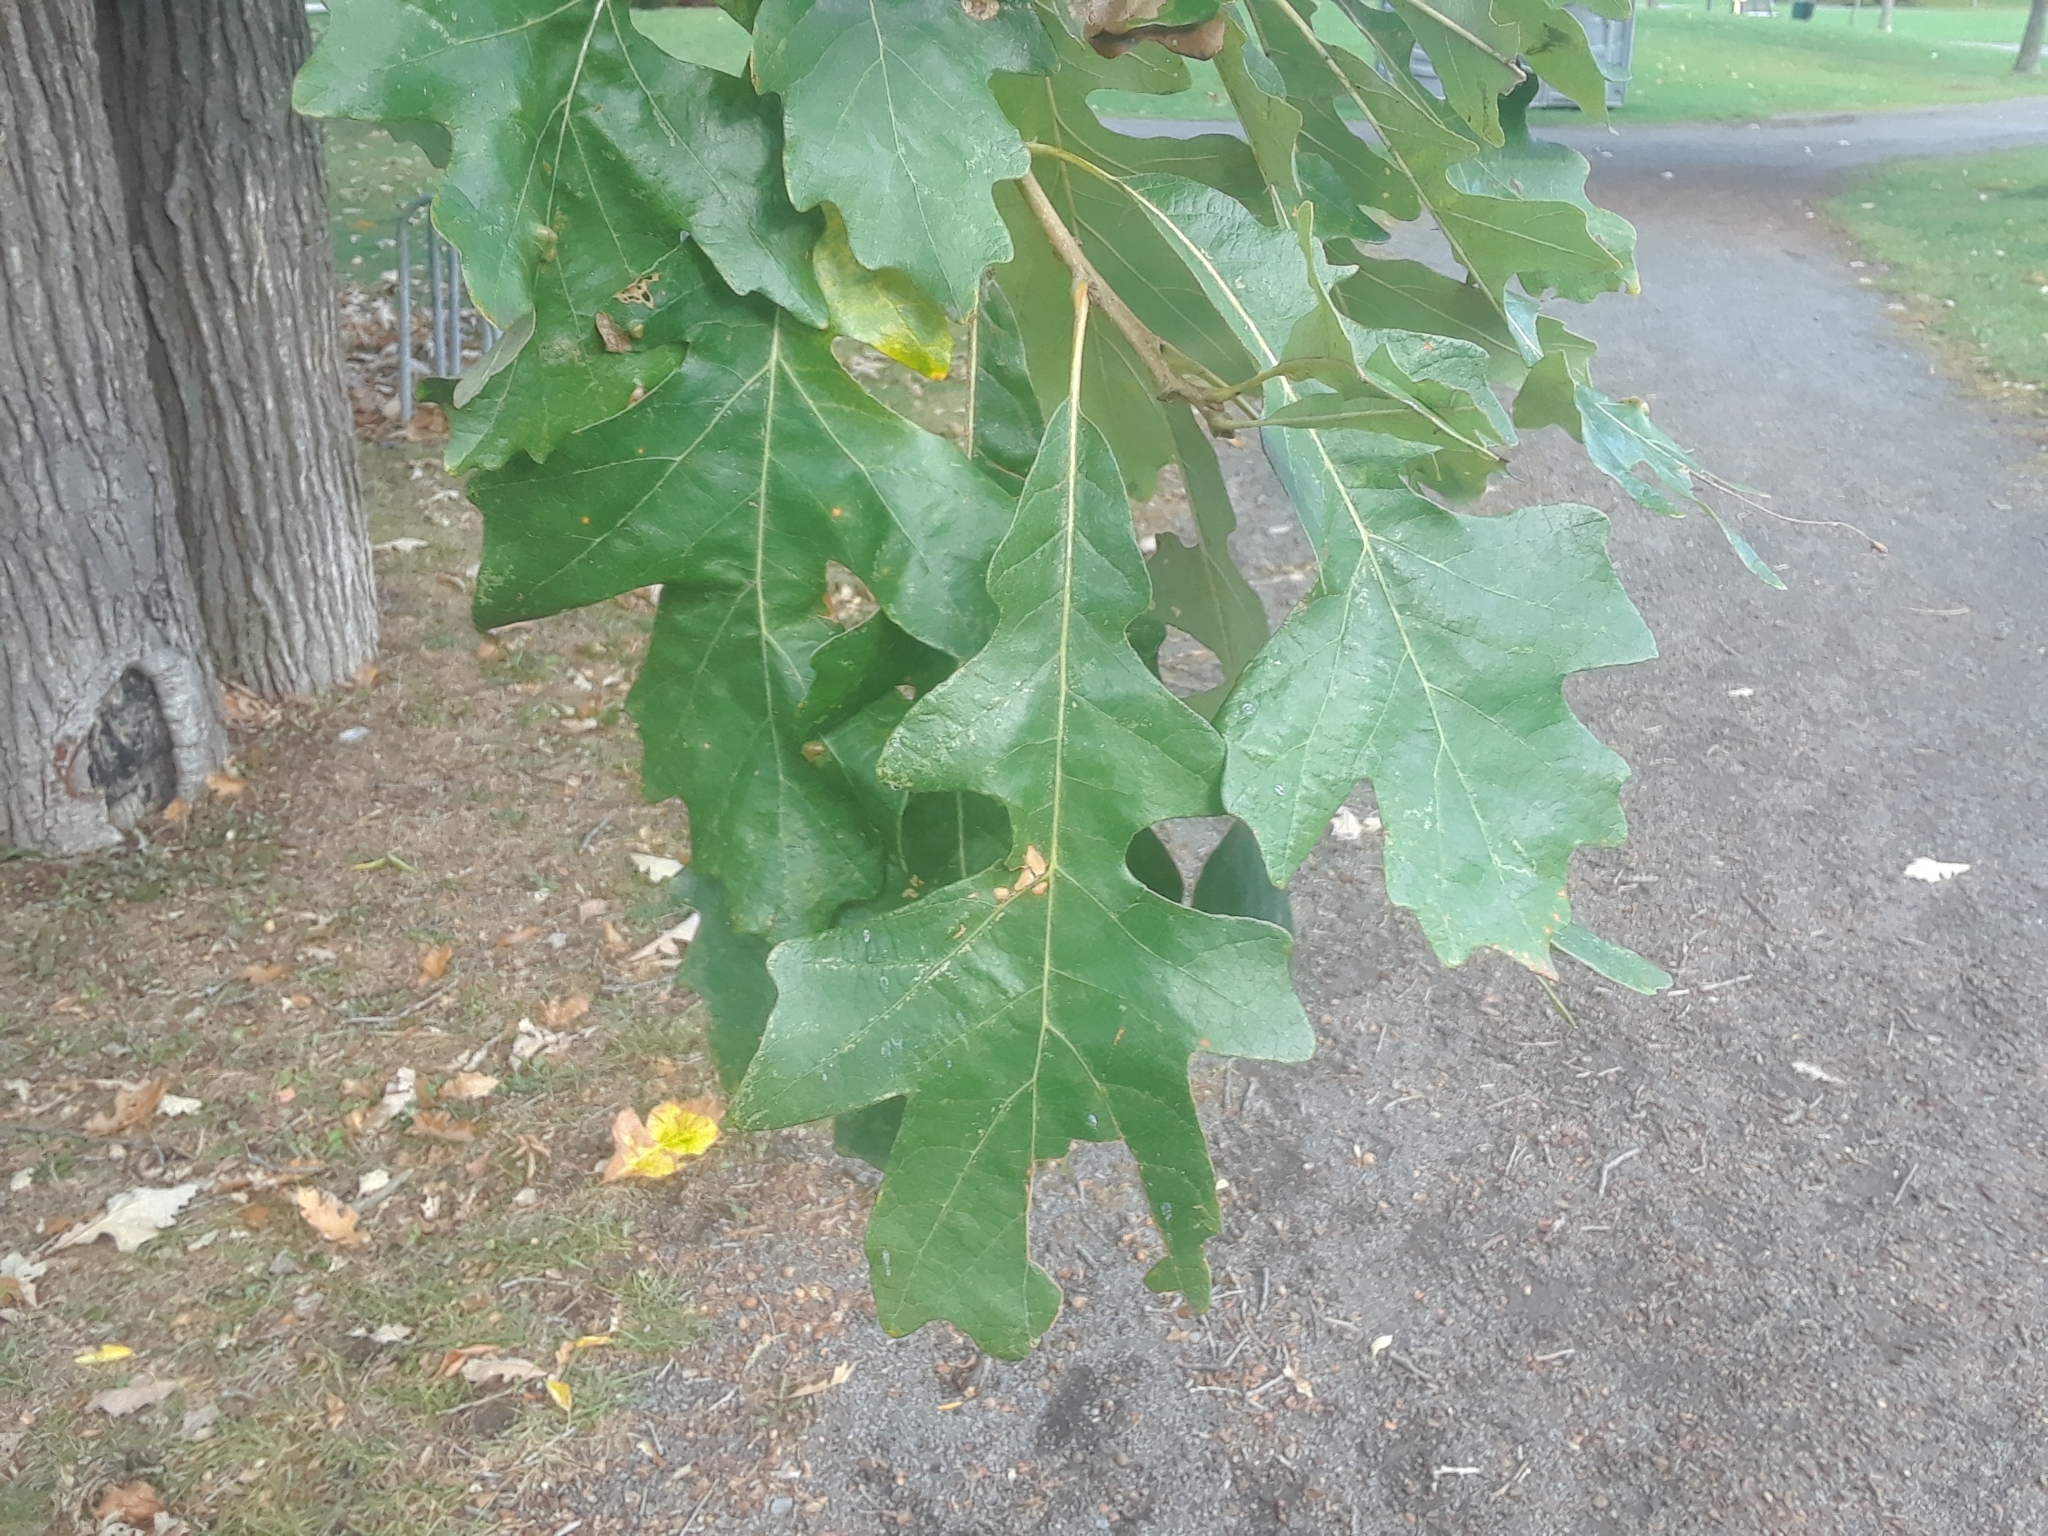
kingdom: Plantae
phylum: Tracheophyta
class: Magnoliopsida
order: Fagales
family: Fagaceae
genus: Quercus
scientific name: Quercus macrocarpa
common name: Bur oak
